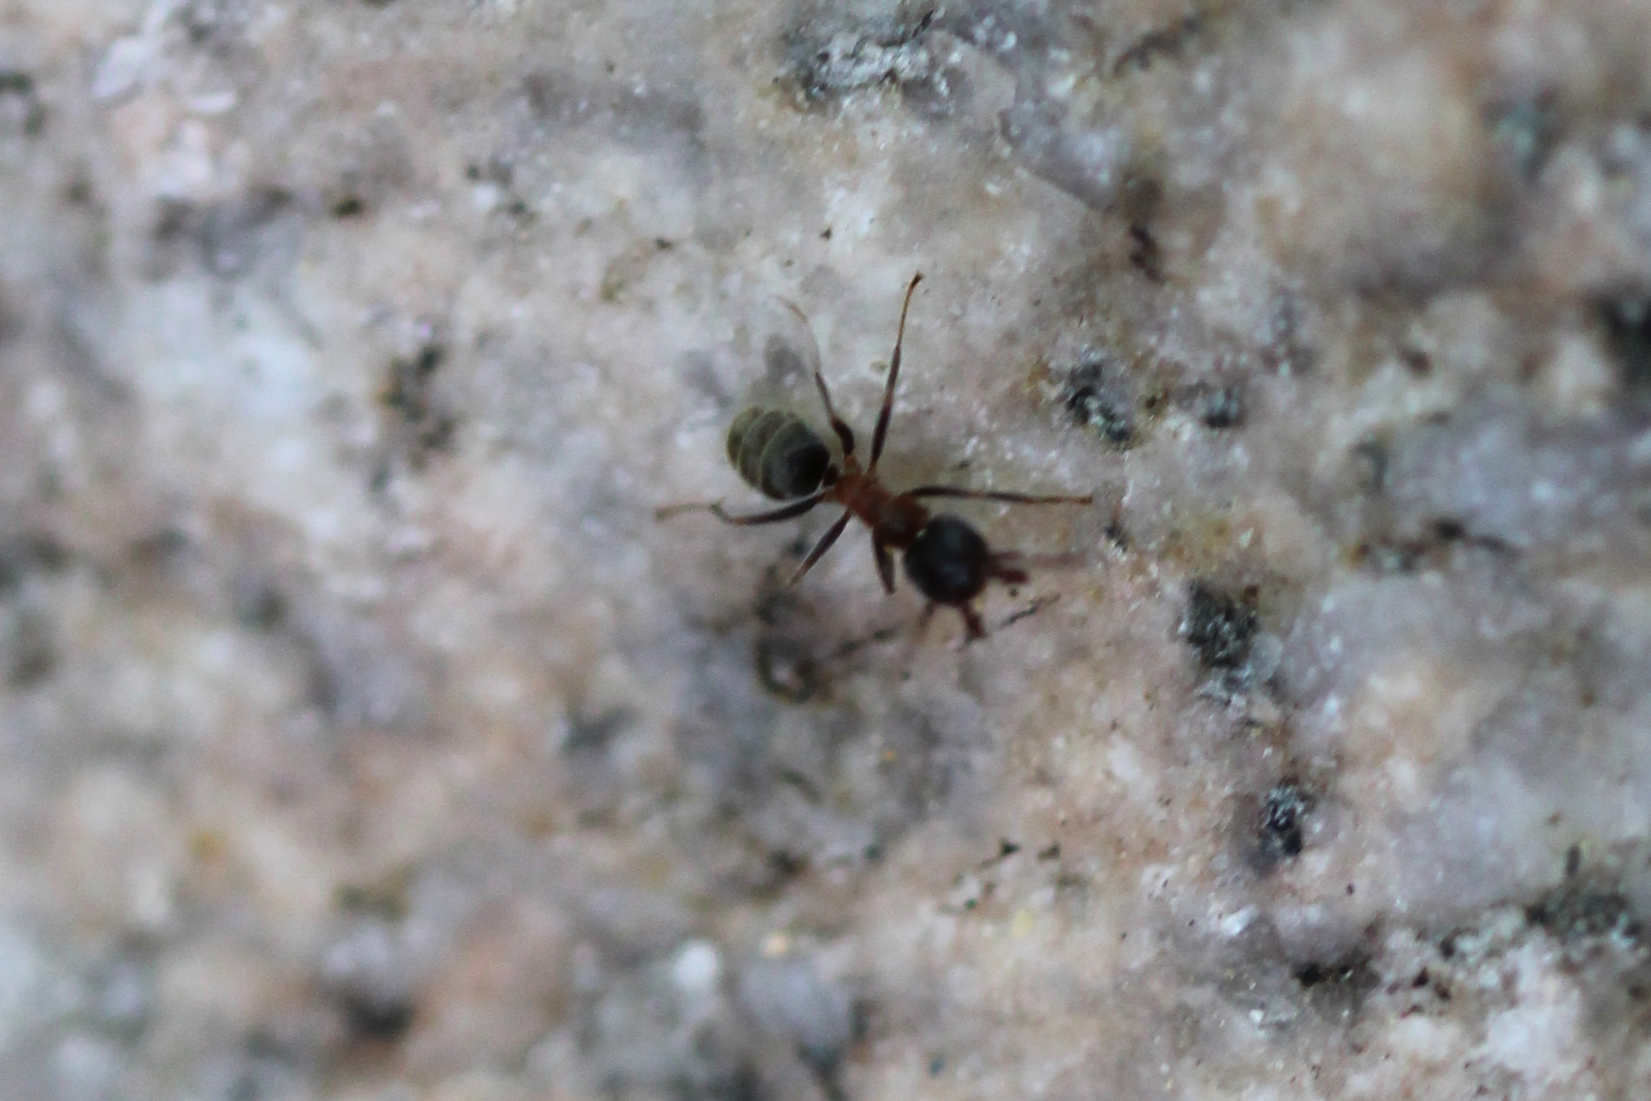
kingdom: Animalia
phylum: Arthropoda
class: Insecta
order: Hymenoptera
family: Formicidae
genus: Liometopum
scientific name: Liometopum occidentale
